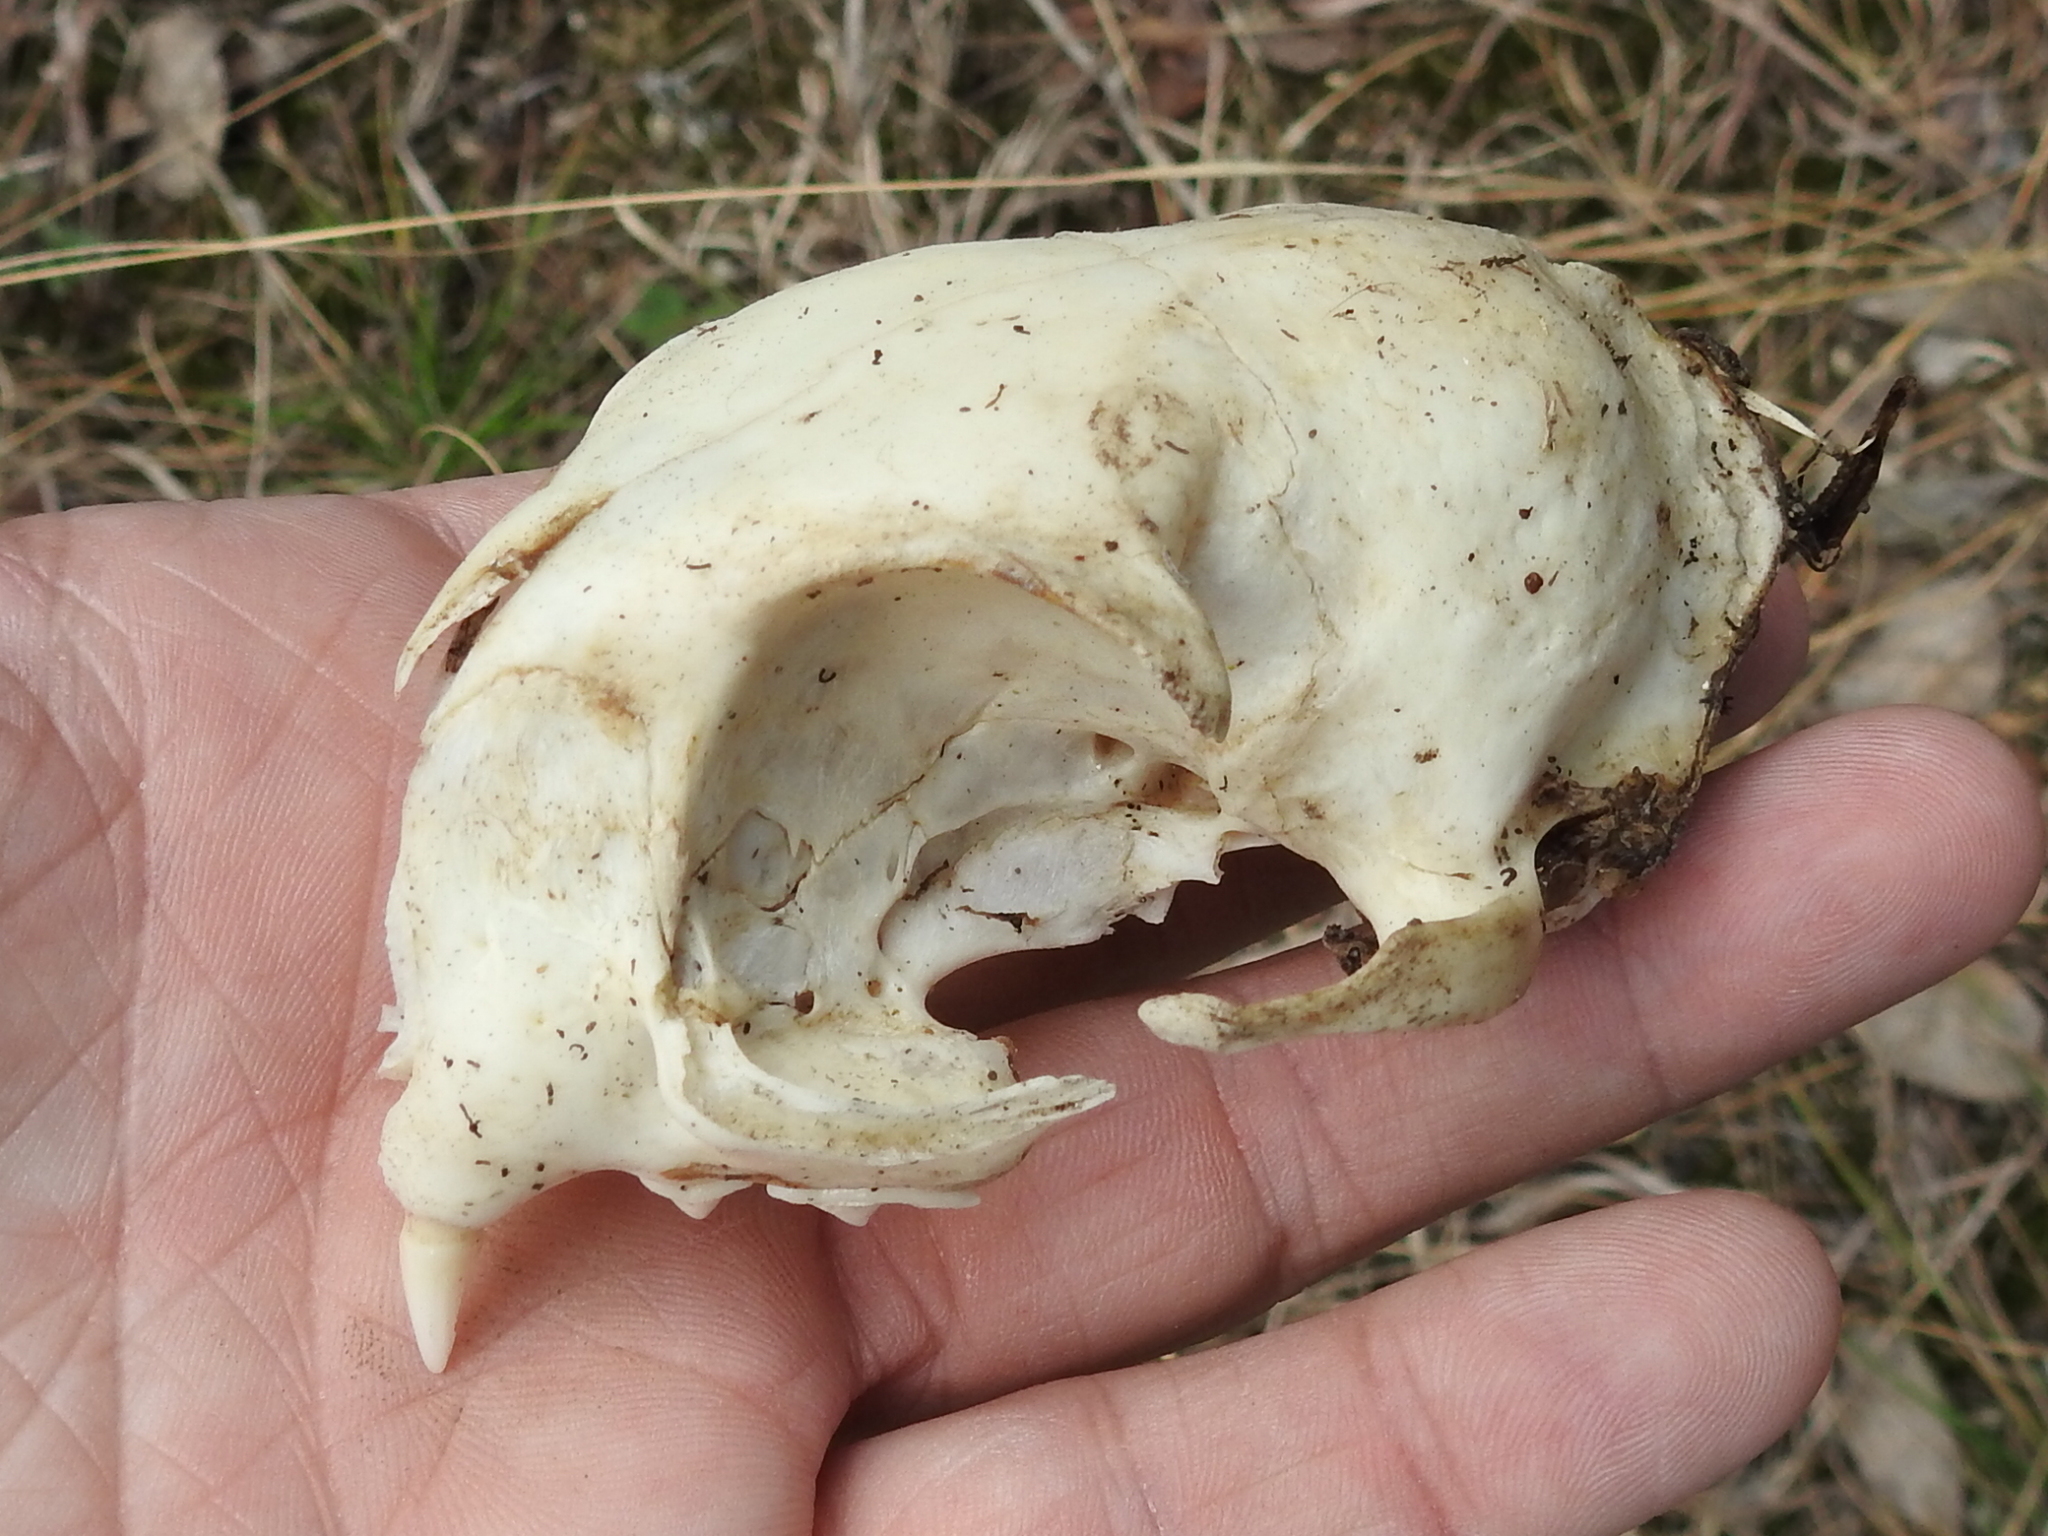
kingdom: Animalia
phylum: Chordata
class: Mammalia
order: Carnivora
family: Felidae
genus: Felis
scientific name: Felis catus
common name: Domestic cat
